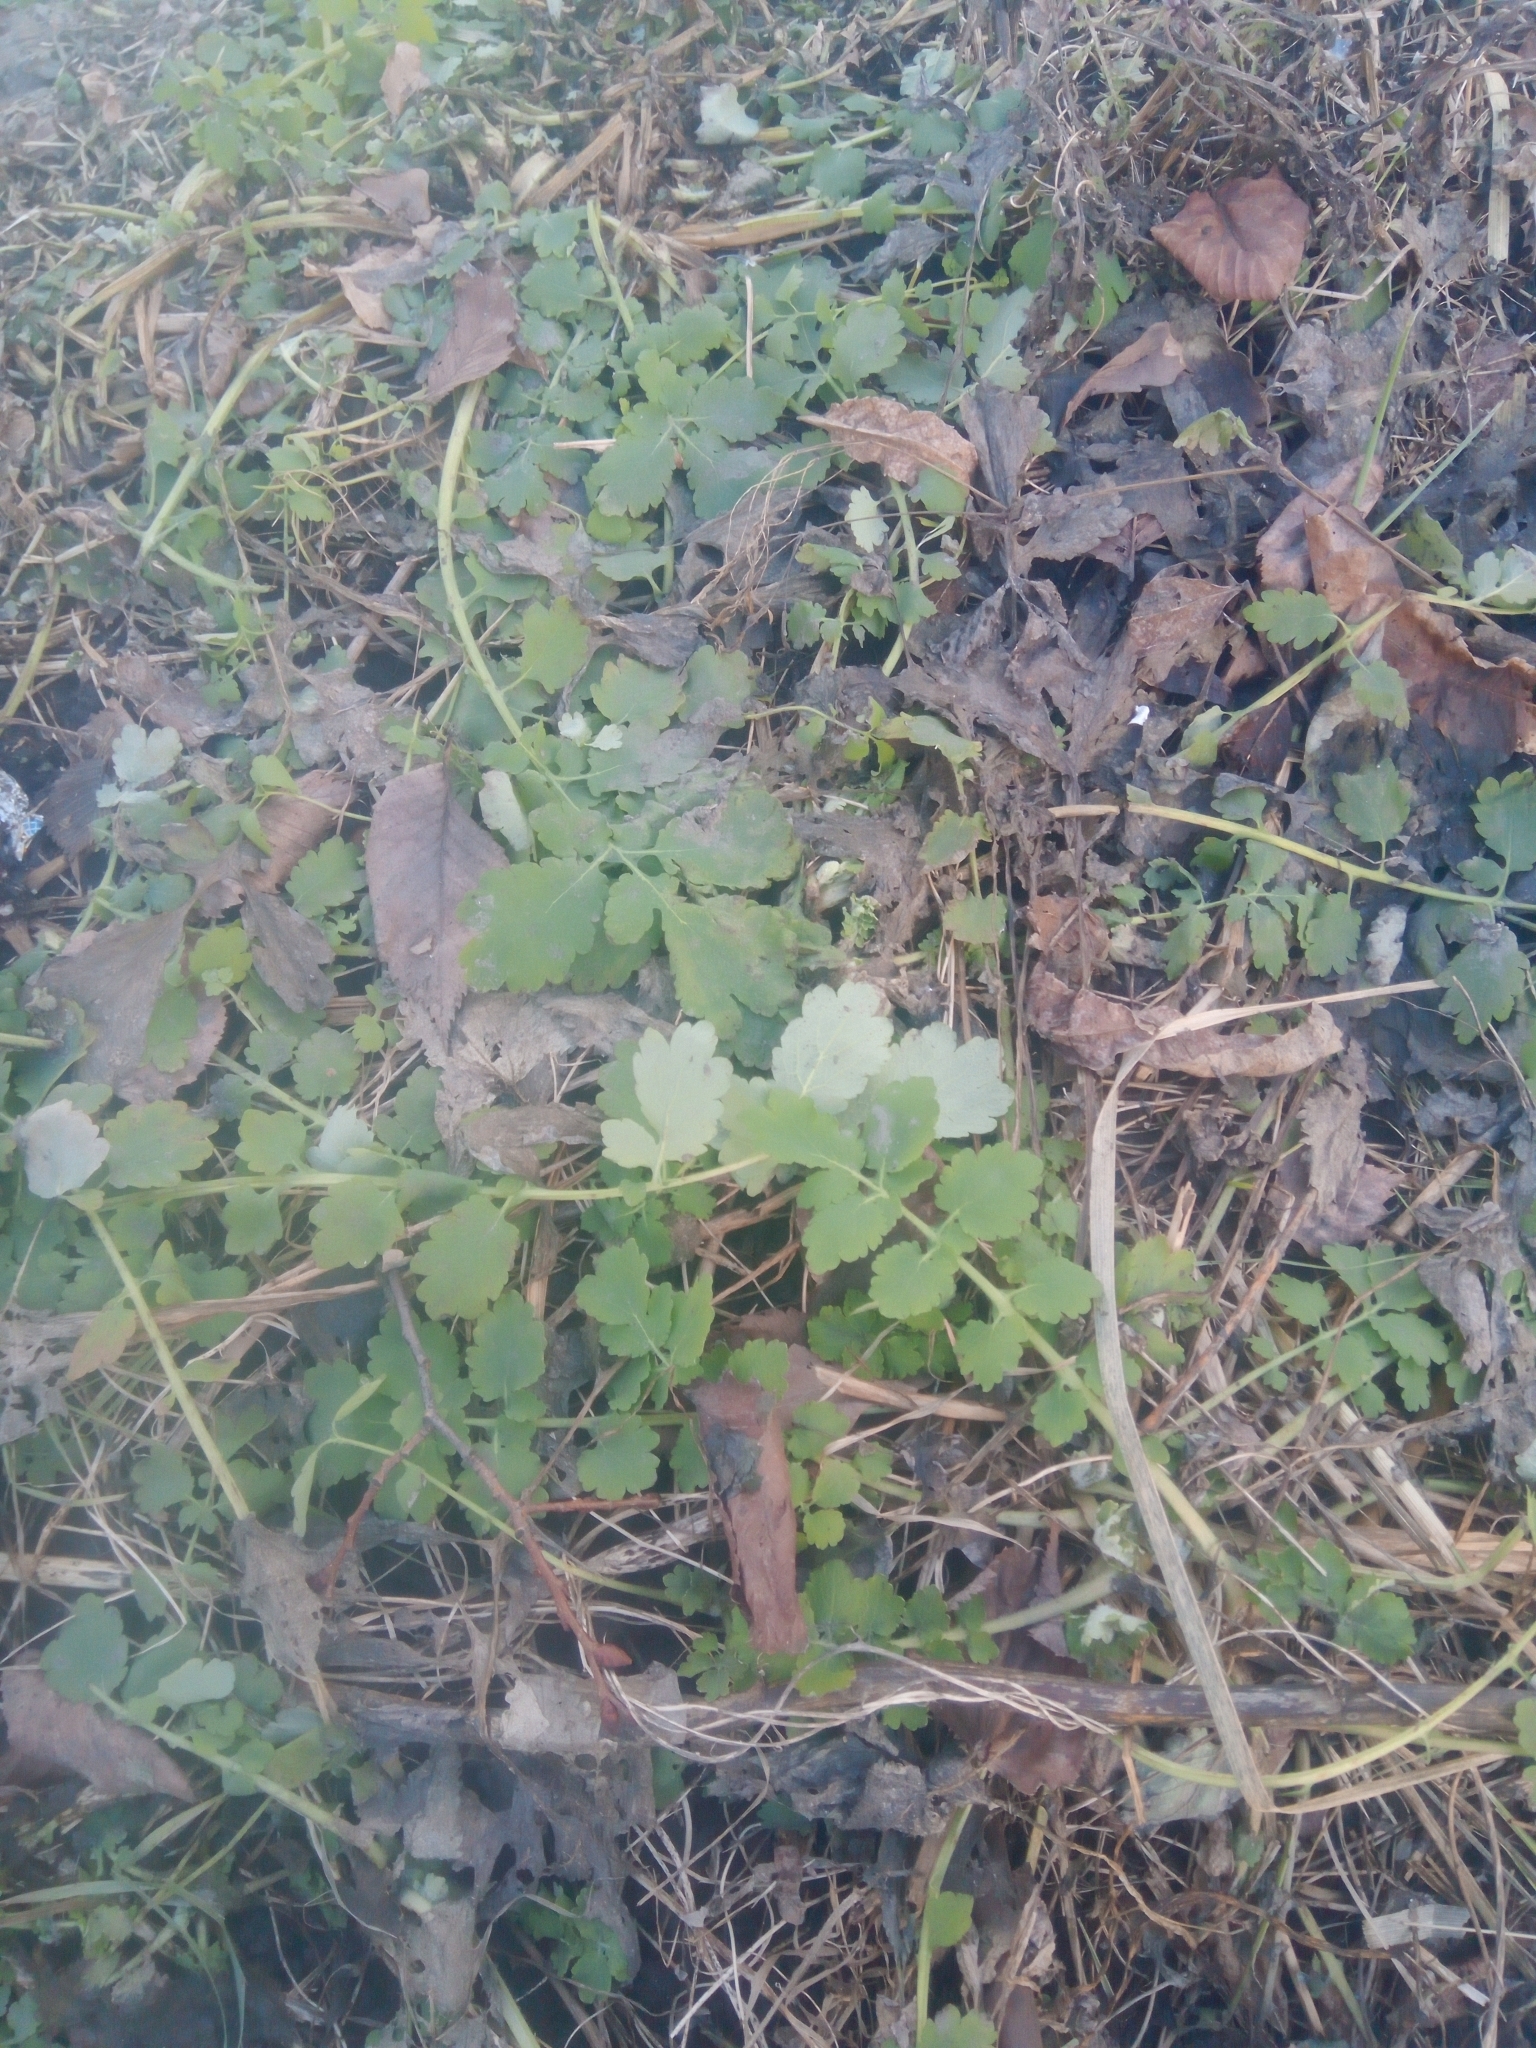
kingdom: Plantae
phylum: Tracheophyta
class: Magnoliopsida
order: Ranunculales
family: Papaveraceae
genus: Chelidonium
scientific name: Chelidonium majus
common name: Greater celandine
